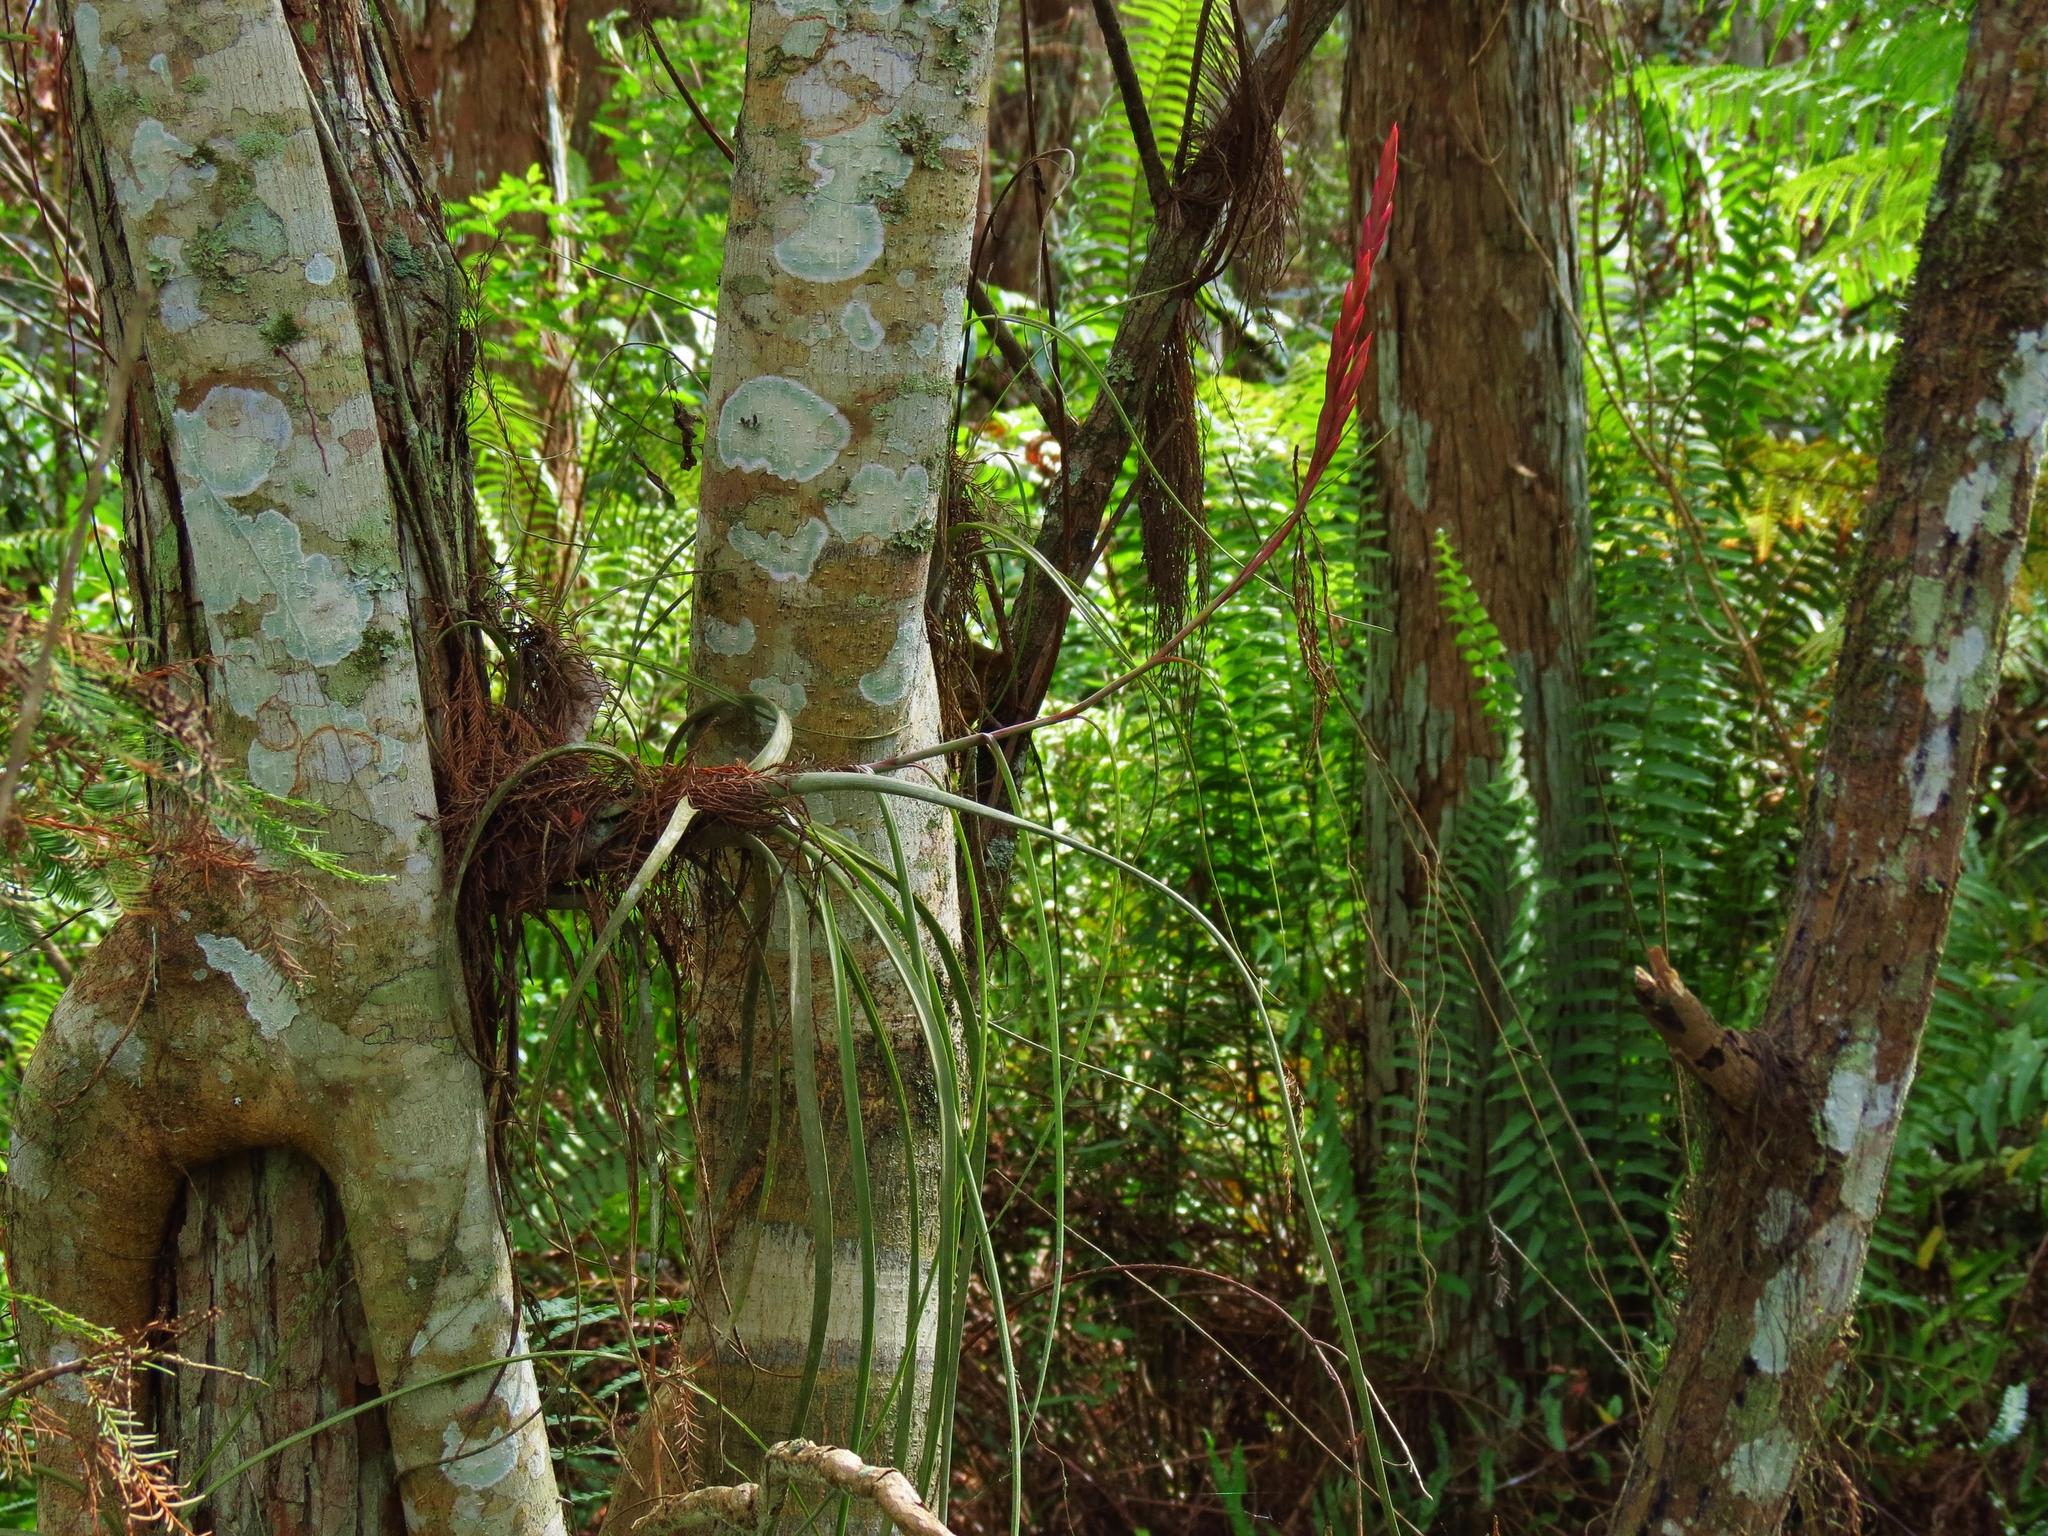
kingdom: Plantae
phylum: Tracheophyta
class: Liliopsida
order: Poales
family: Bromeliaceae
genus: Tillandsia
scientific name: Tillandsia balbisiana
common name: Northern needleleaf
